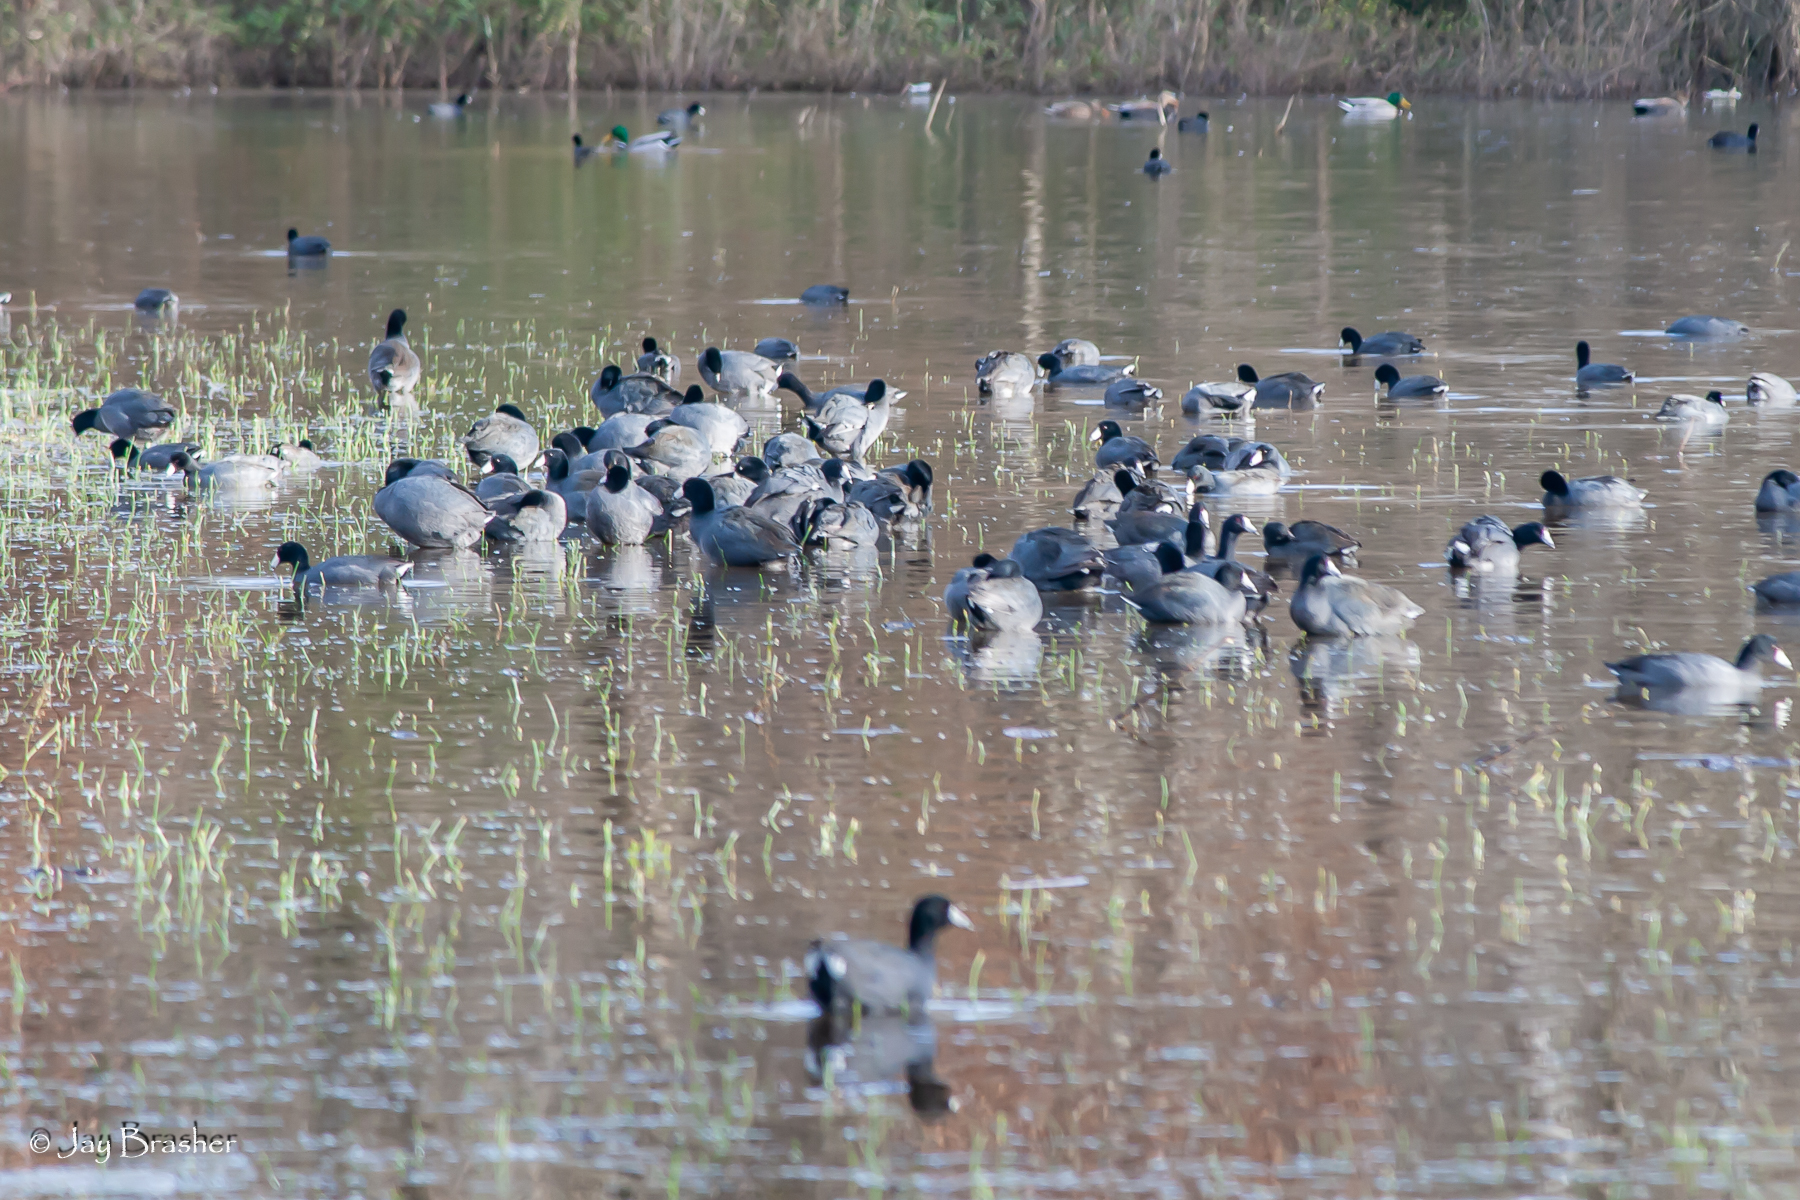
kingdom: Animalia
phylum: Chordata
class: Aves
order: Gruiformes
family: Rallidae
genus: Fulica
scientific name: Fulica americana
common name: American coot
